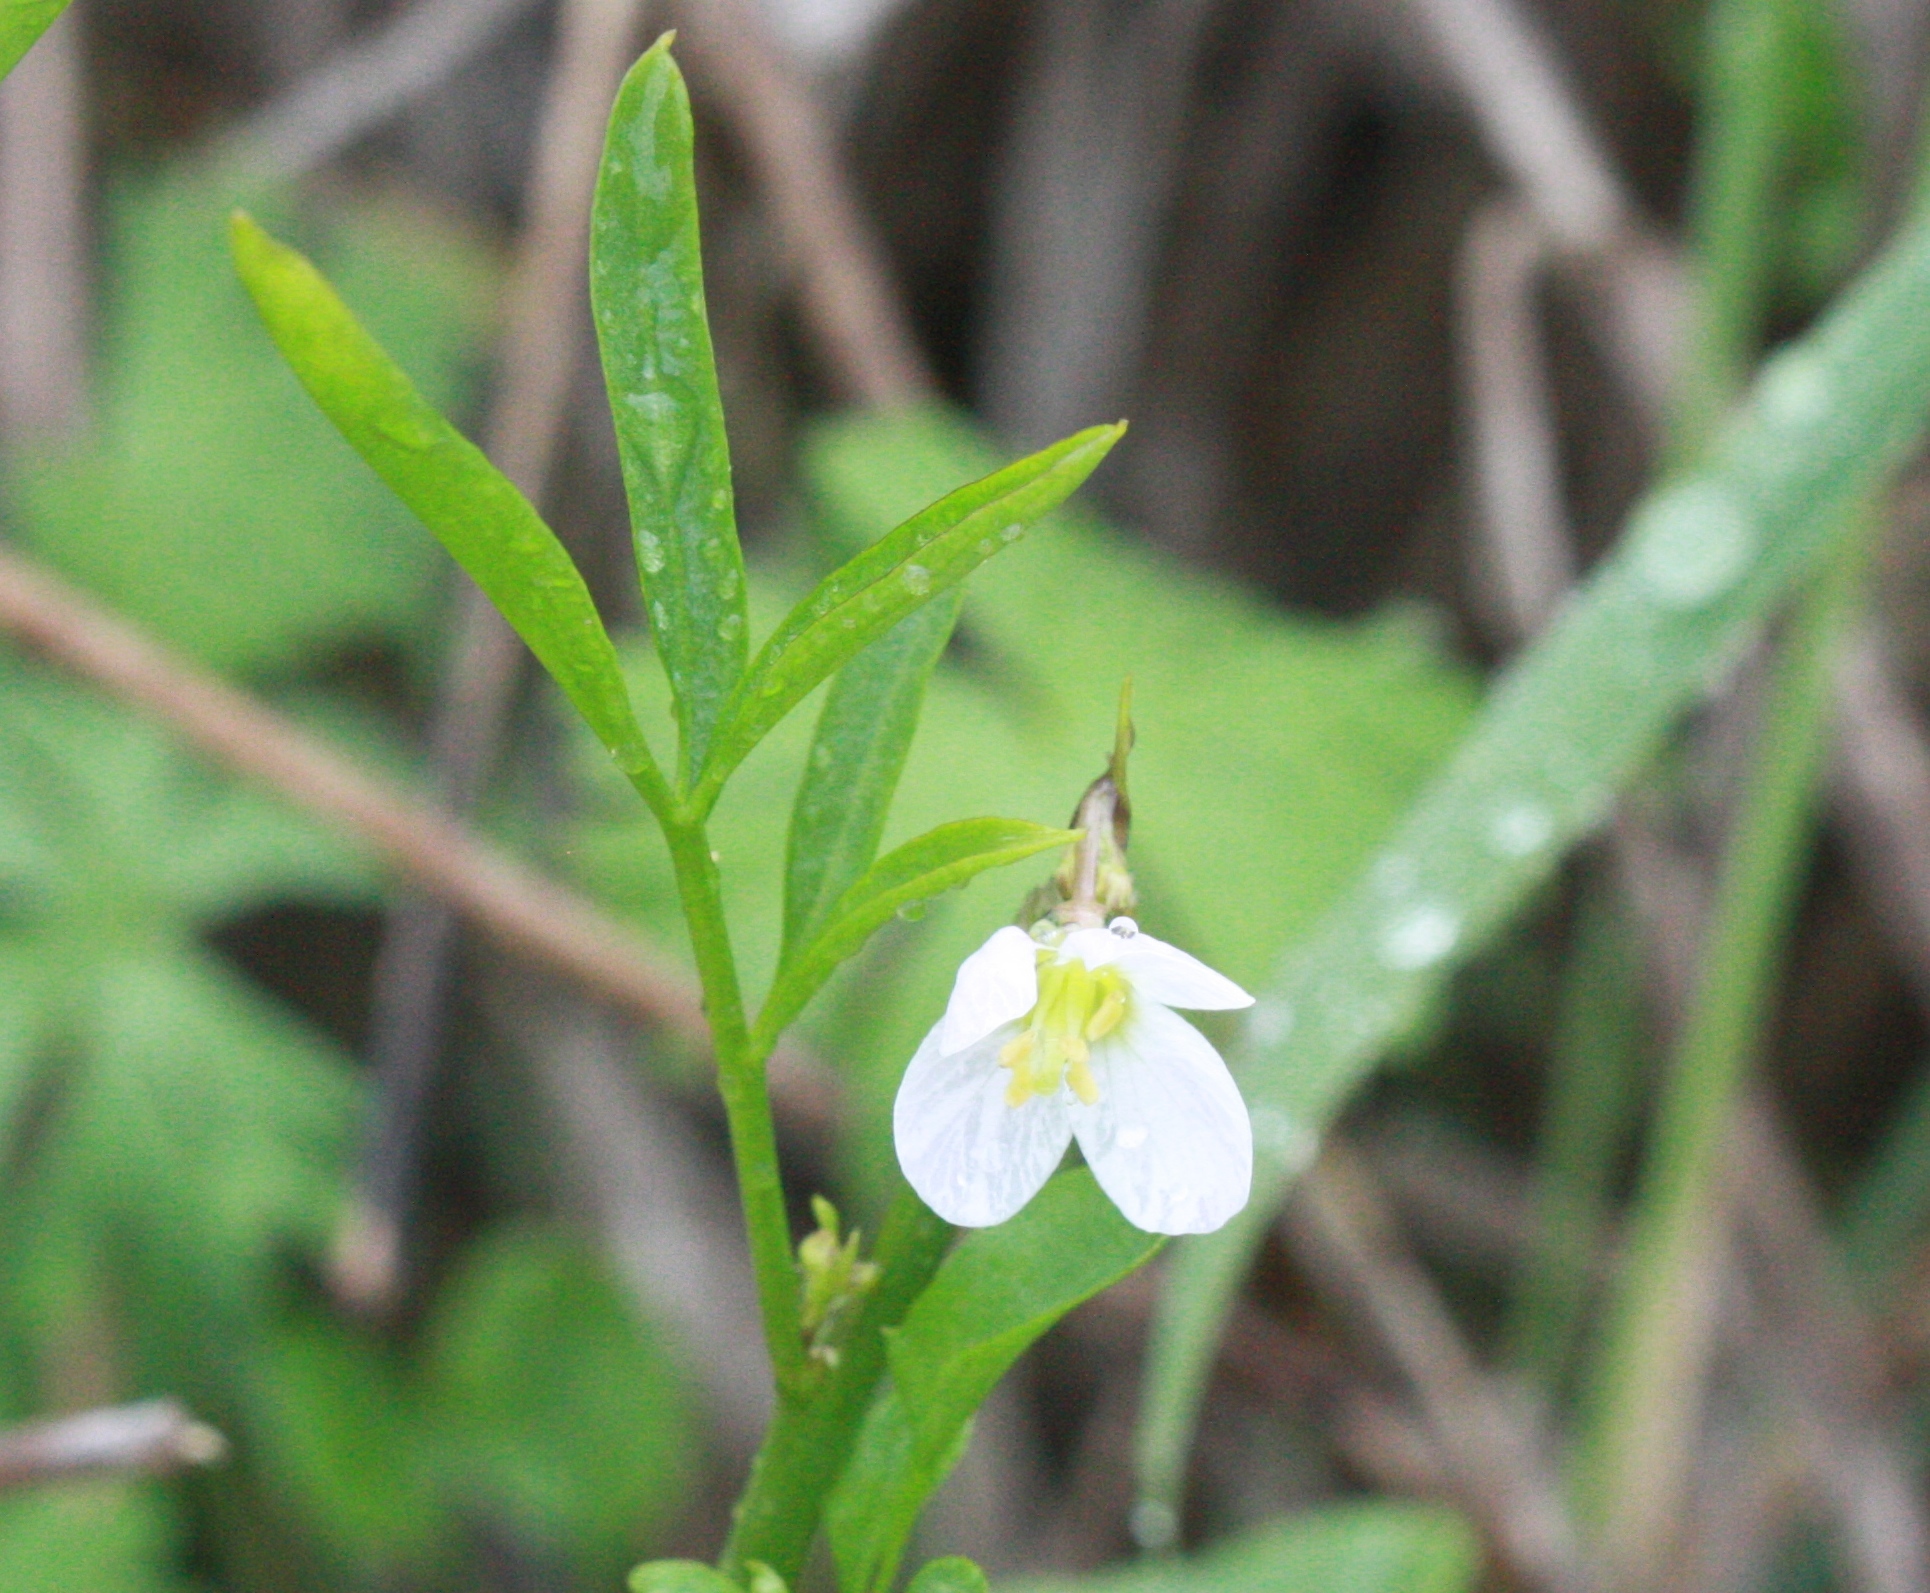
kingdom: Plantae
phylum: Tracheophyta
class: Magnoliopsida
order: Brassicales
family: Brassicaceae
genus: Cardamine
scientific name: Cardamine californica
